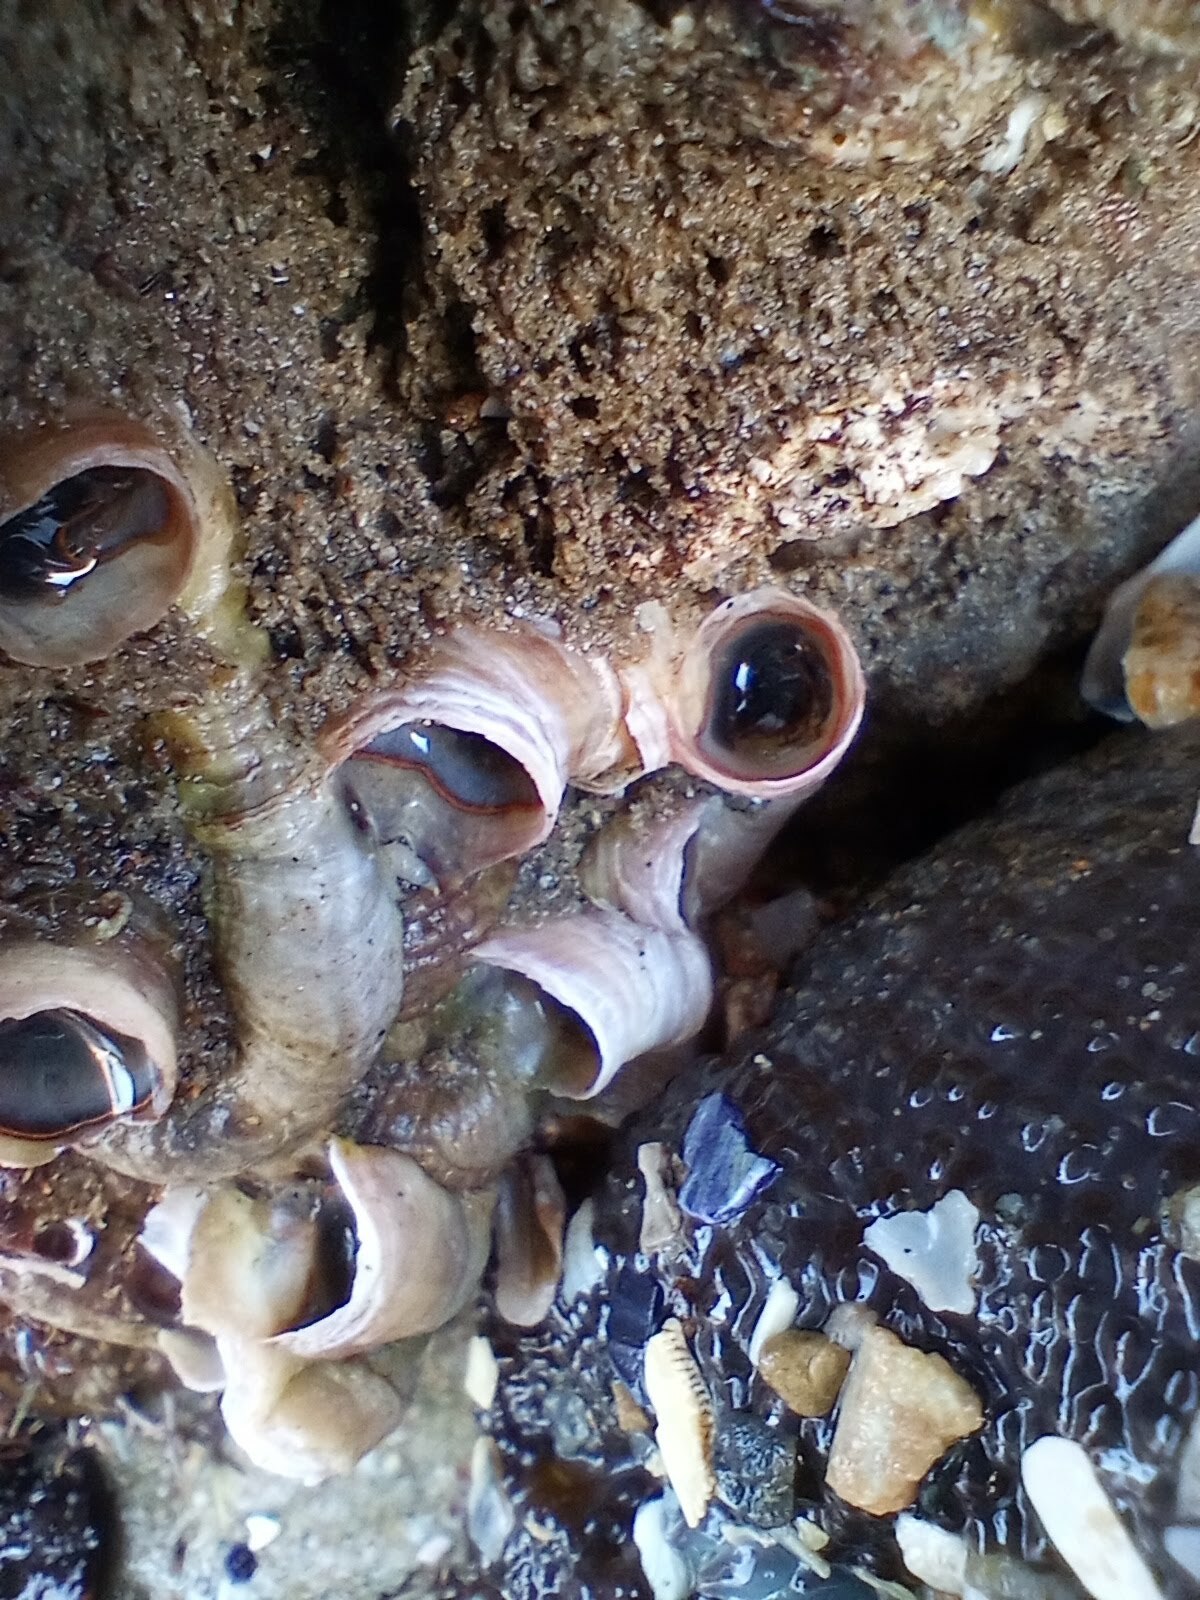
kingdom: Animalia
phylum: Mollusca
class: Gastropoda
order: Littorinimorpha
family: Vermetidae
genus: Thylacodes
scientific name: Thylacodes squamigerus
